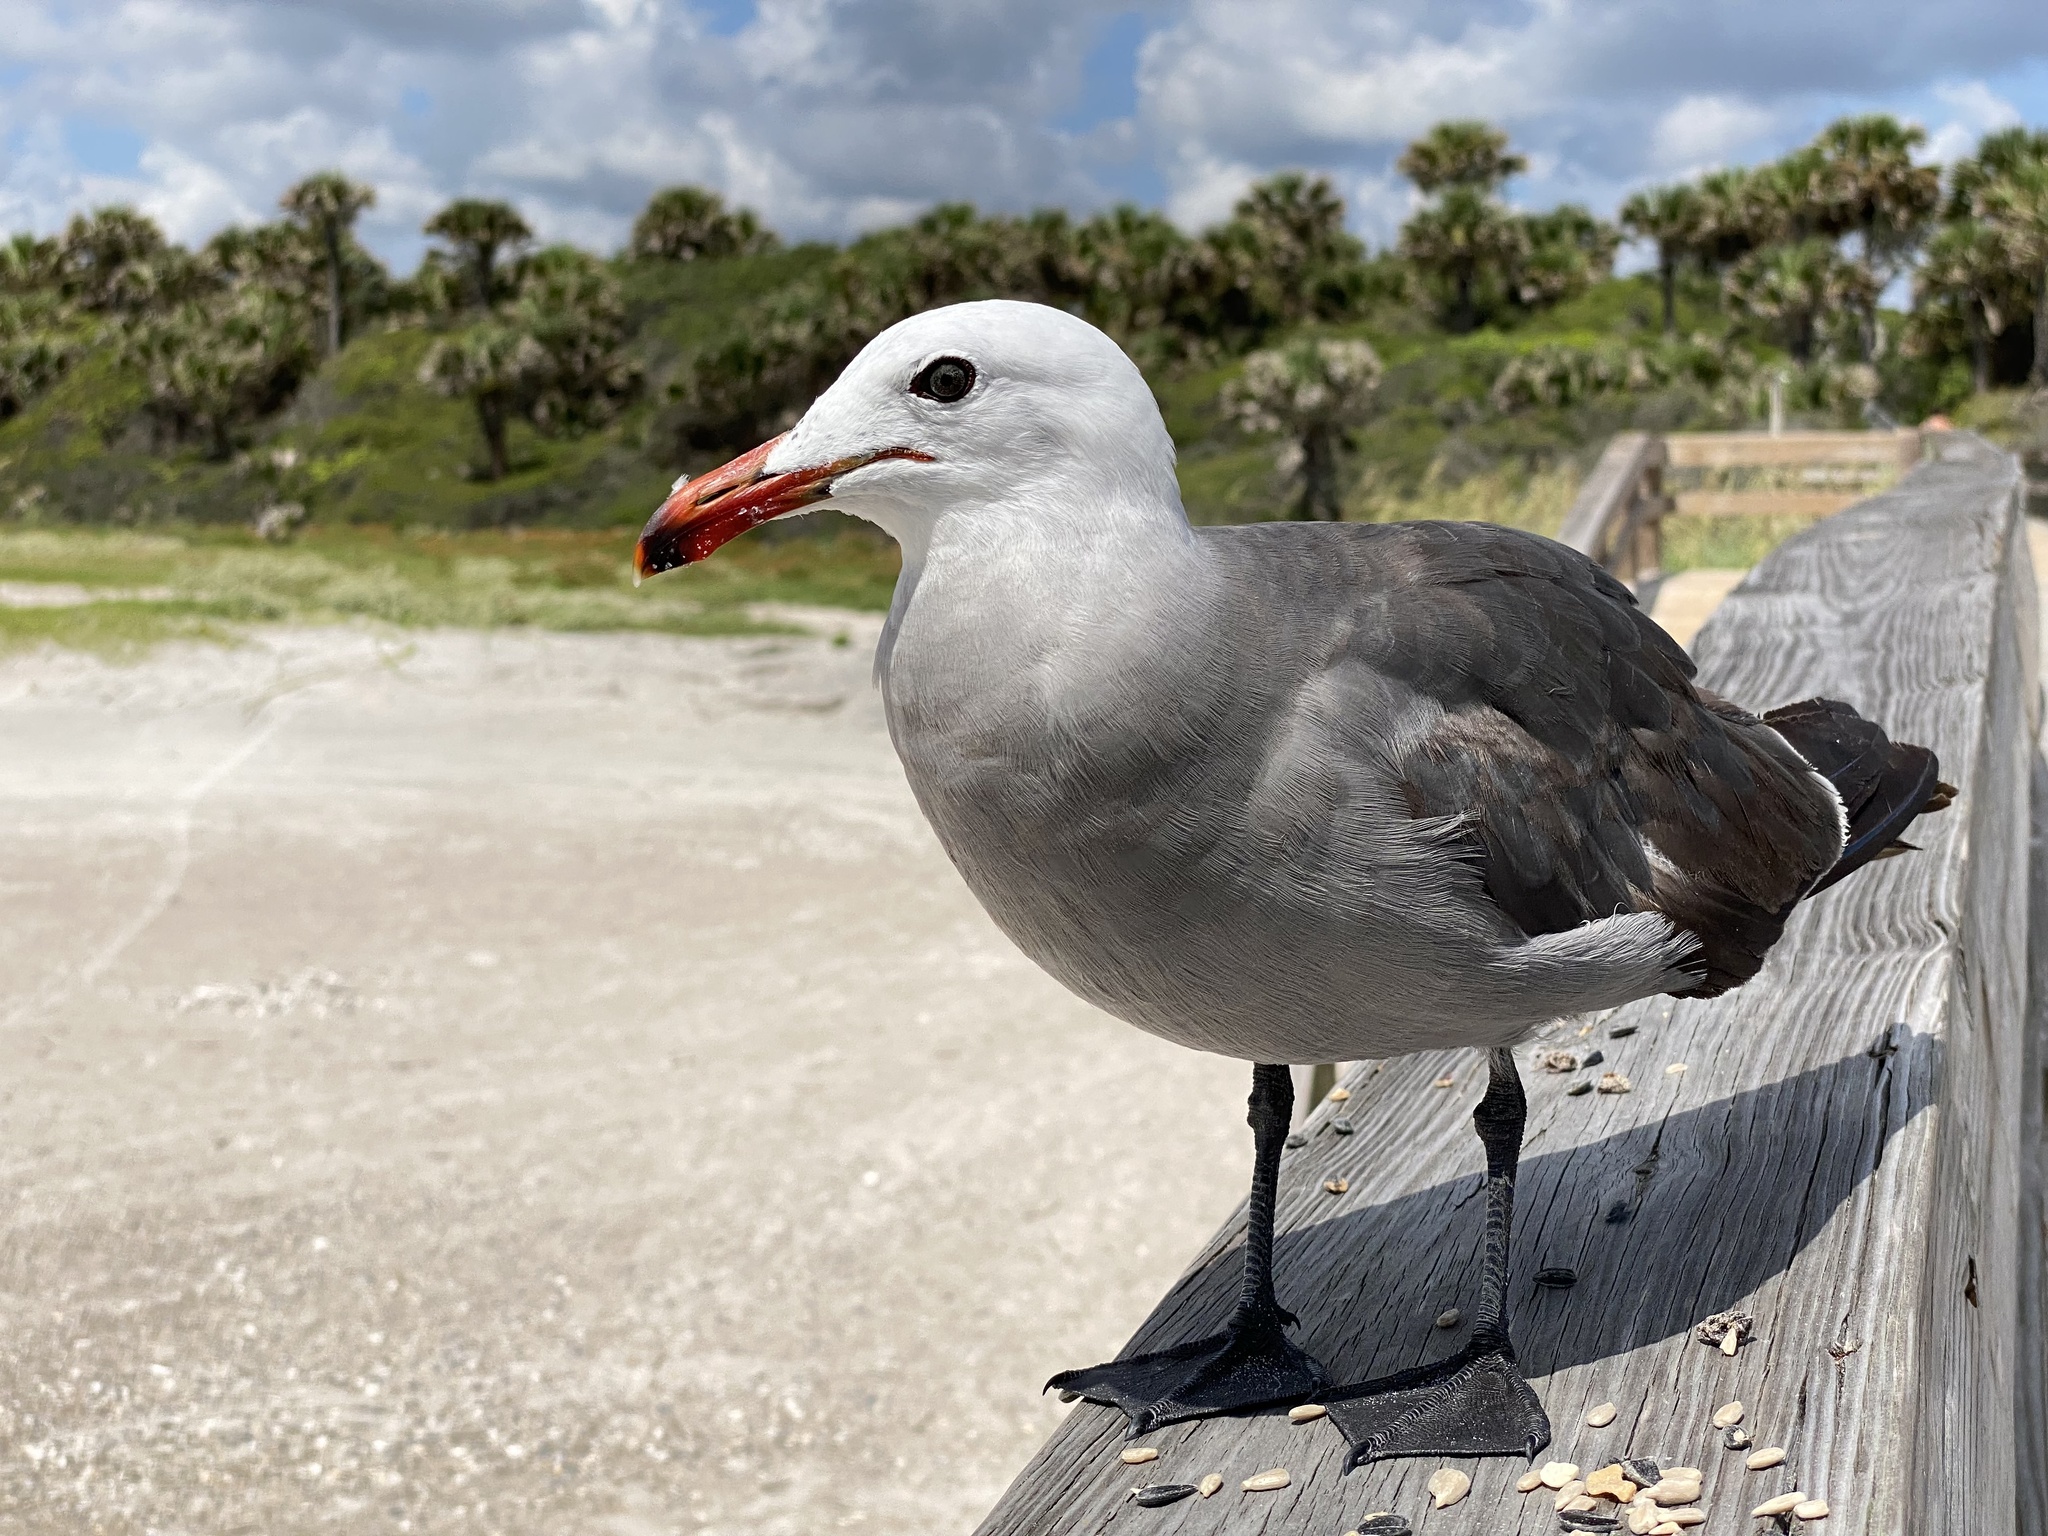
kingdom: Animalia
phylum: Chordata
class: Aves
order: Charadriiformes
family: Laridae
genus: Larus
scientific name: Larus heermanni
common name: Heermann's gull
